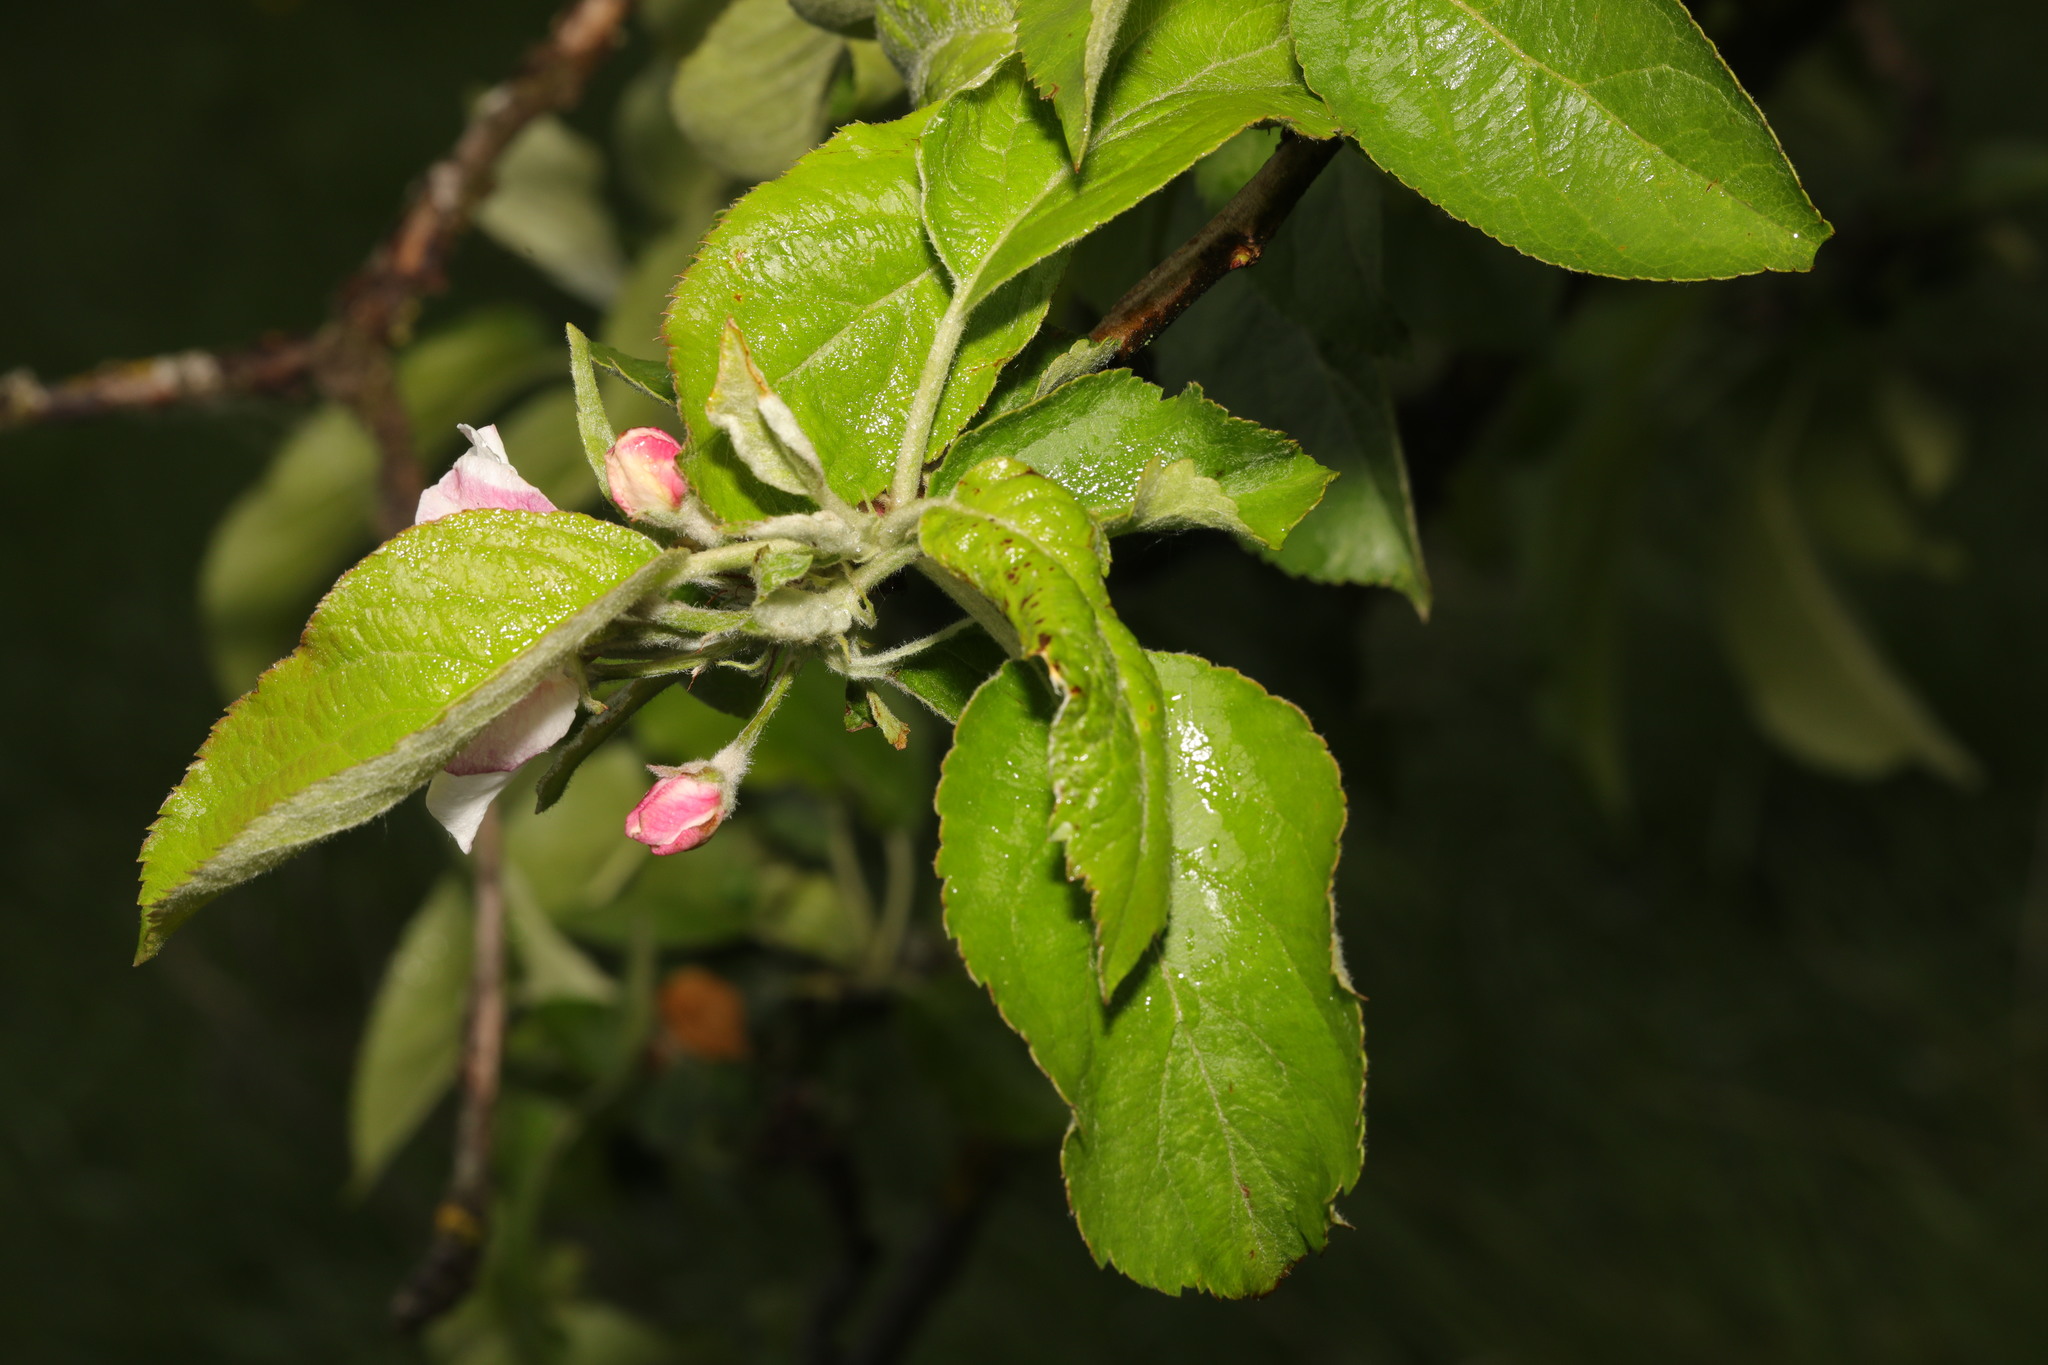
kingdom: Plantae
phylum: Tracheophyta
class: Magnoliopsida
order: Rosales
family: Rosaceae
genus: Malus
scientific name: Malus domestica
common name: Apple
